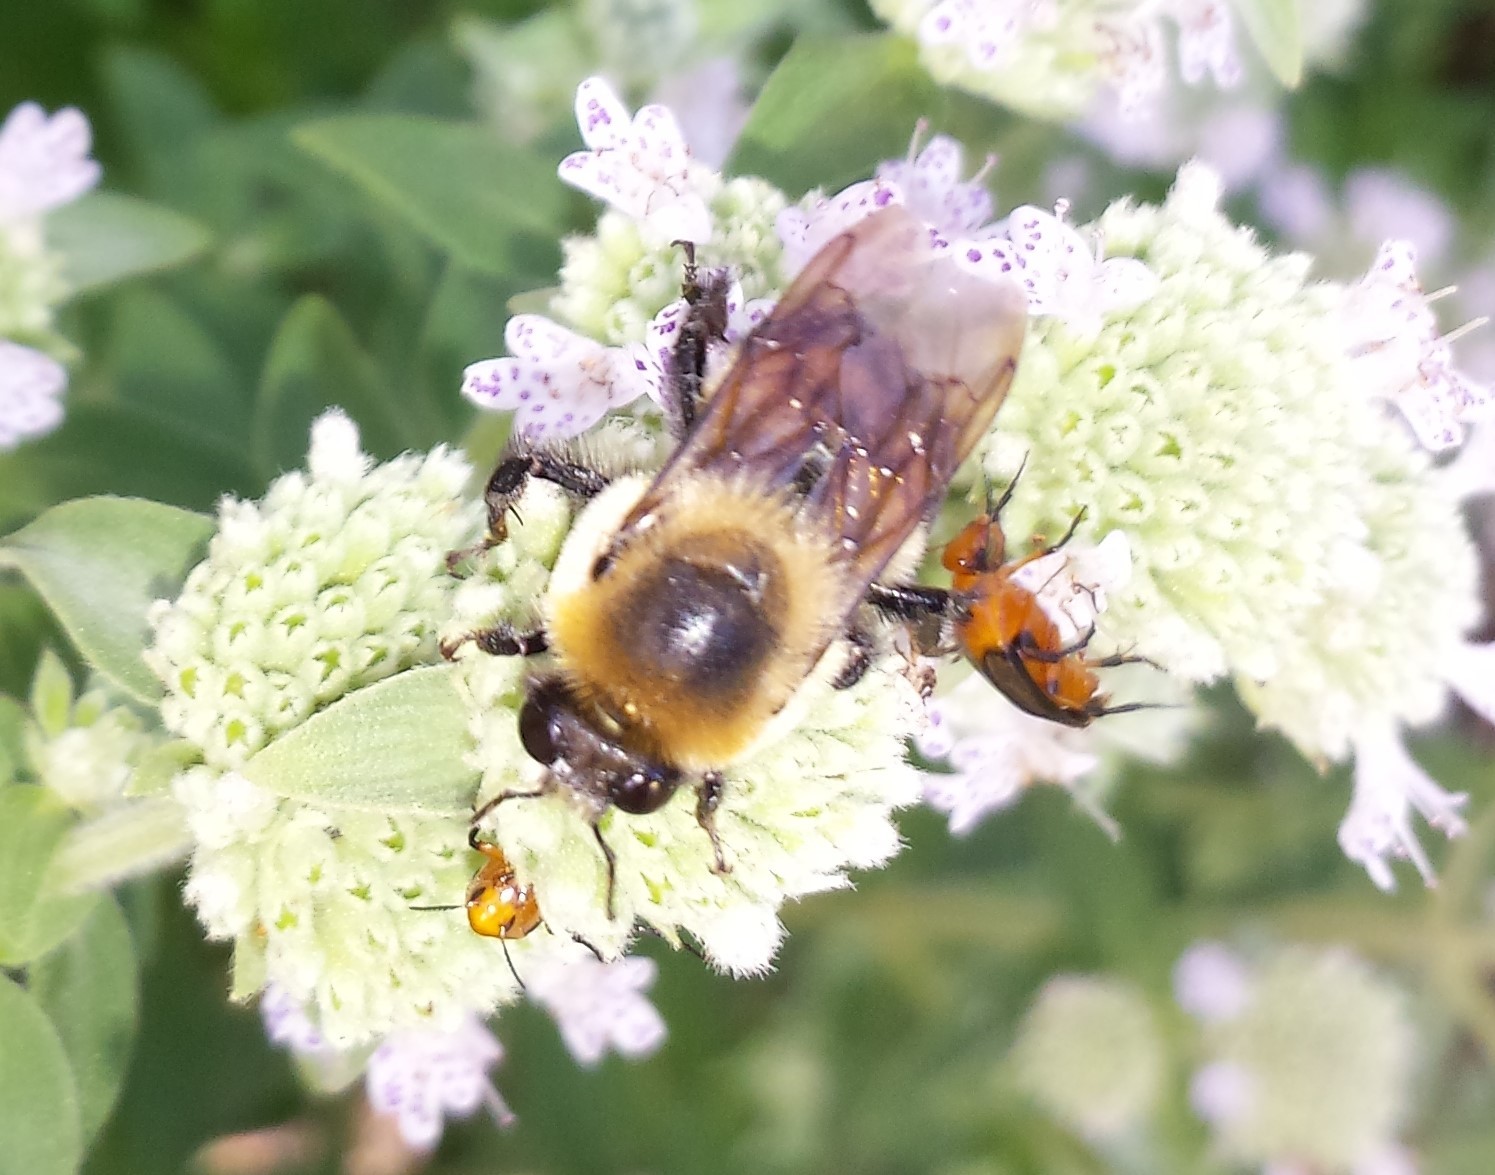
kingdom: Animalia
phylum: Arthropoda
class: Insecta
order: Hymenoptera
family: Apidae
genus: Bombus
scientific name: Bombus griseocollis
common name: Brown-belted bumble bee
